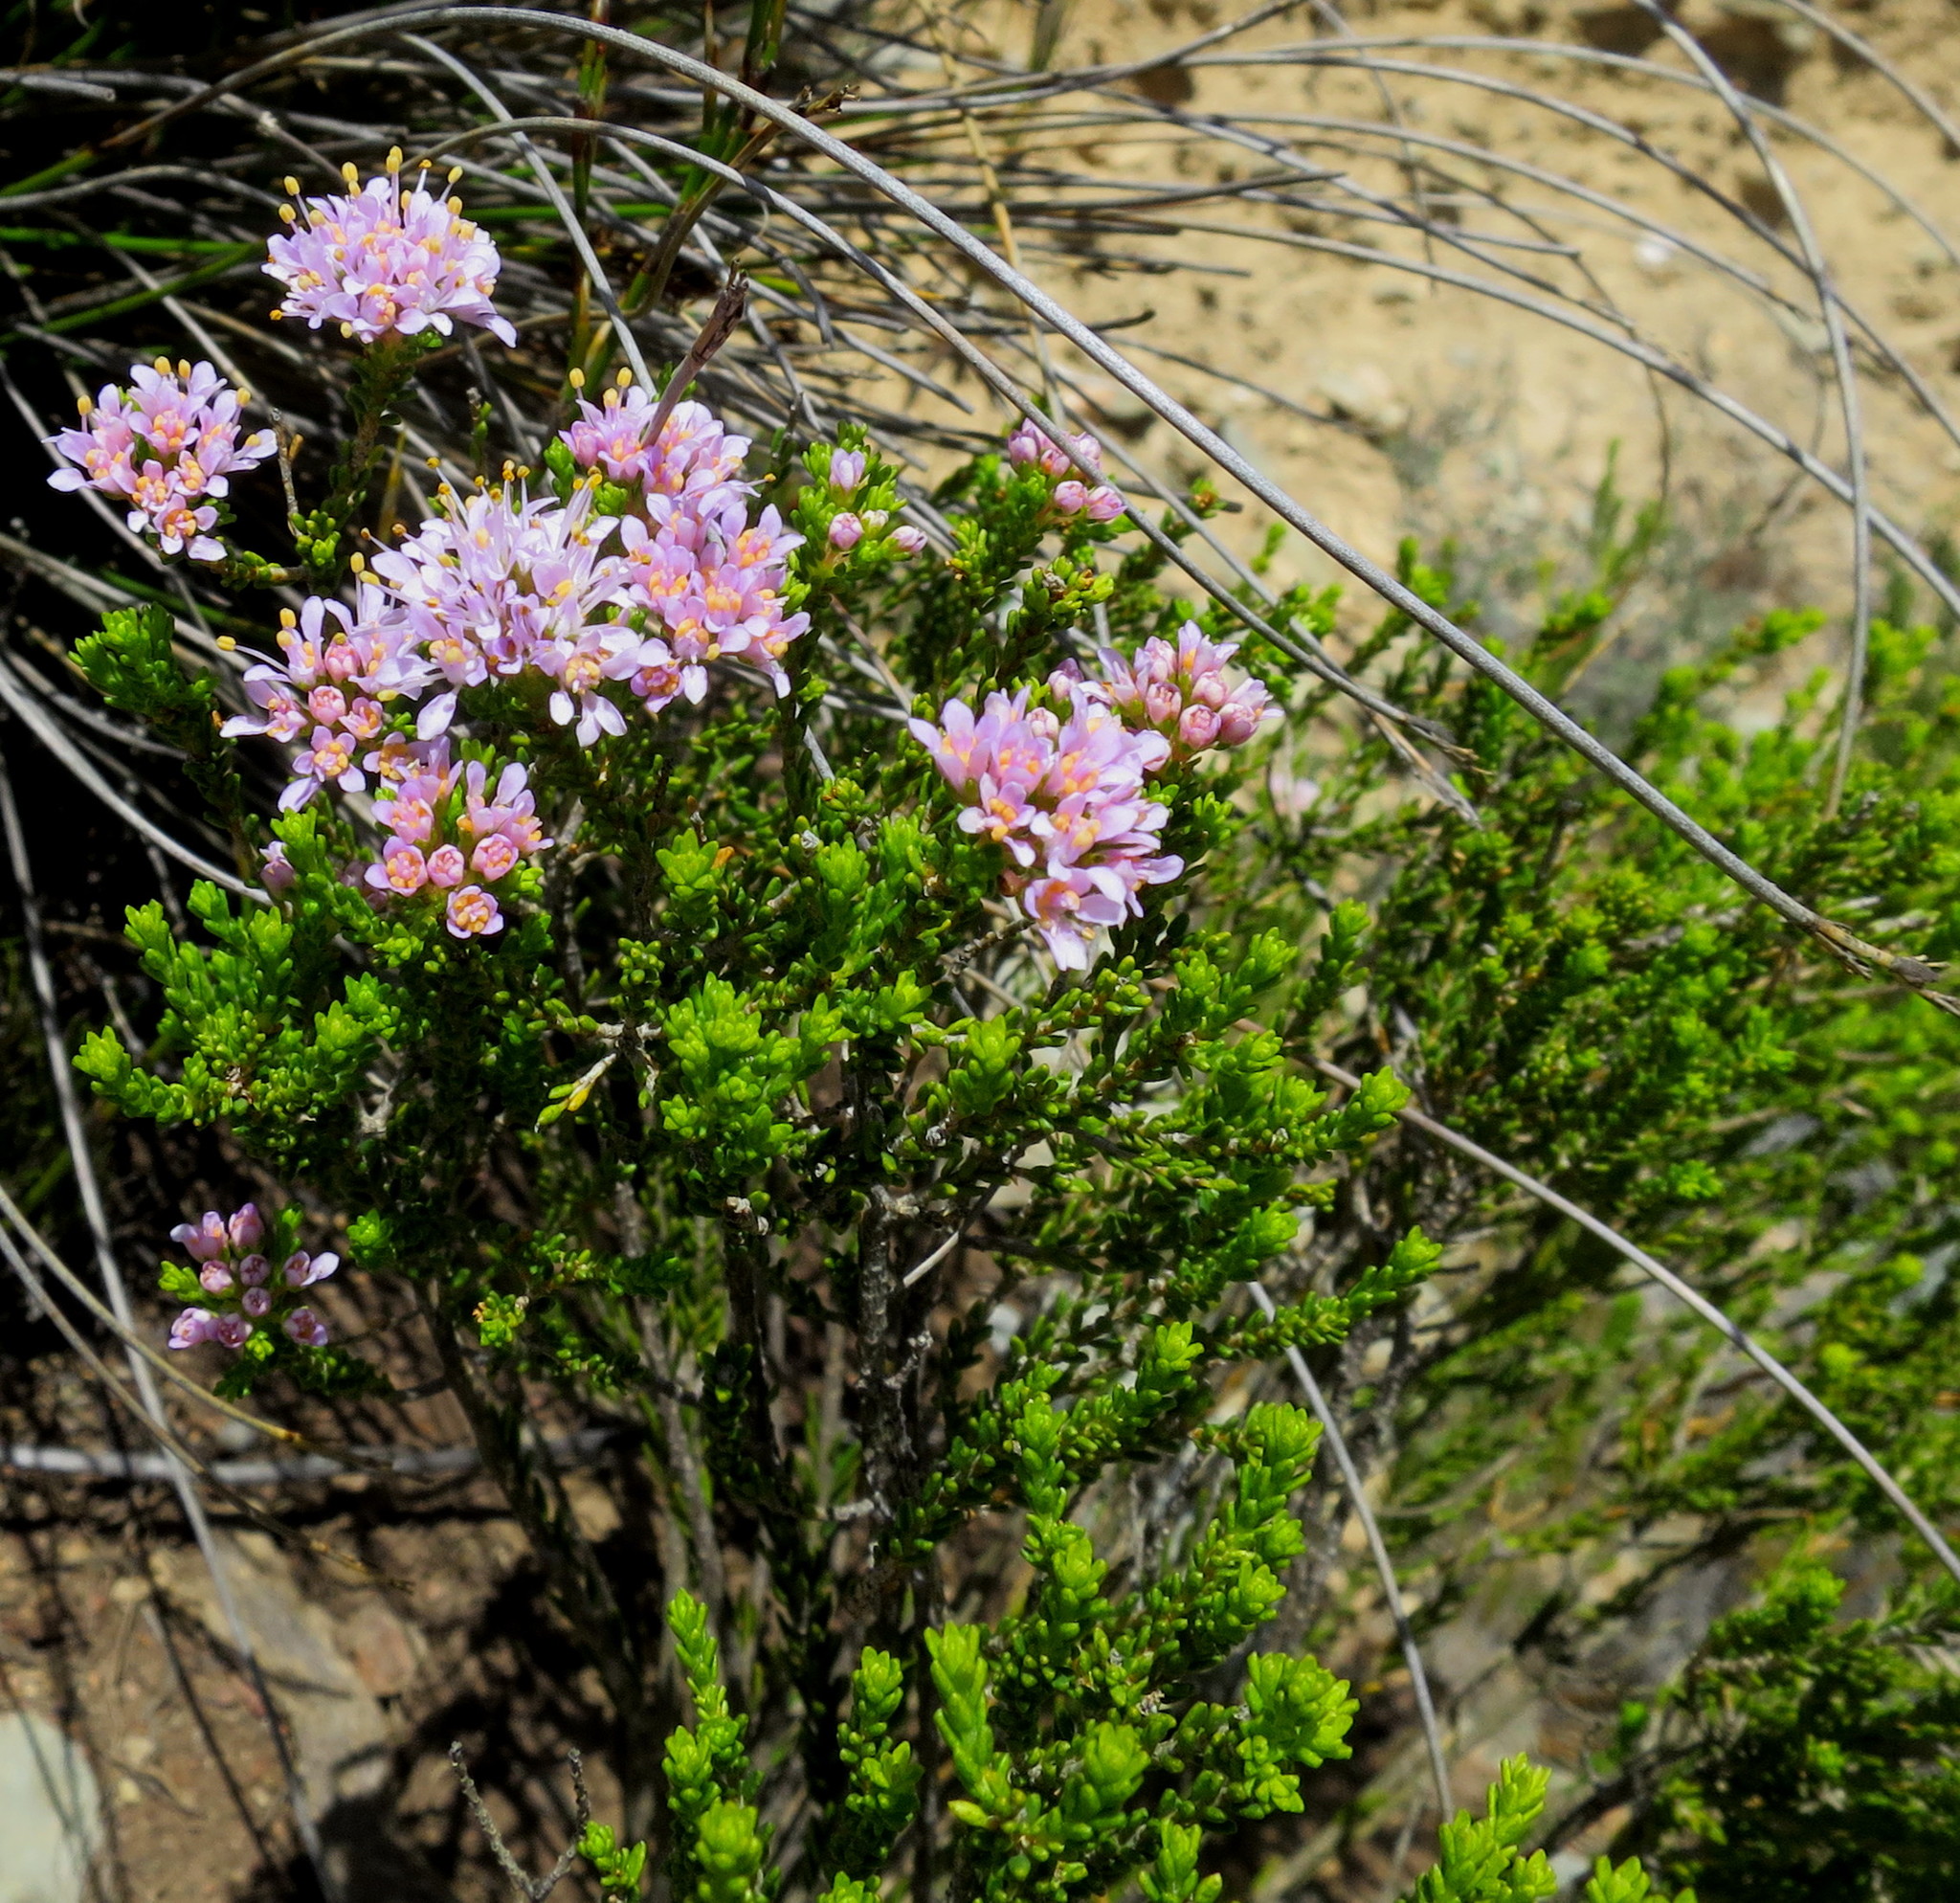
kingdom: Plantae
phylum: Tracheophyta
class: Magnoliopsida
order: Sapindales
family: Rutaceae
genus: Agathosma
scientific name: Agathosma capensis
